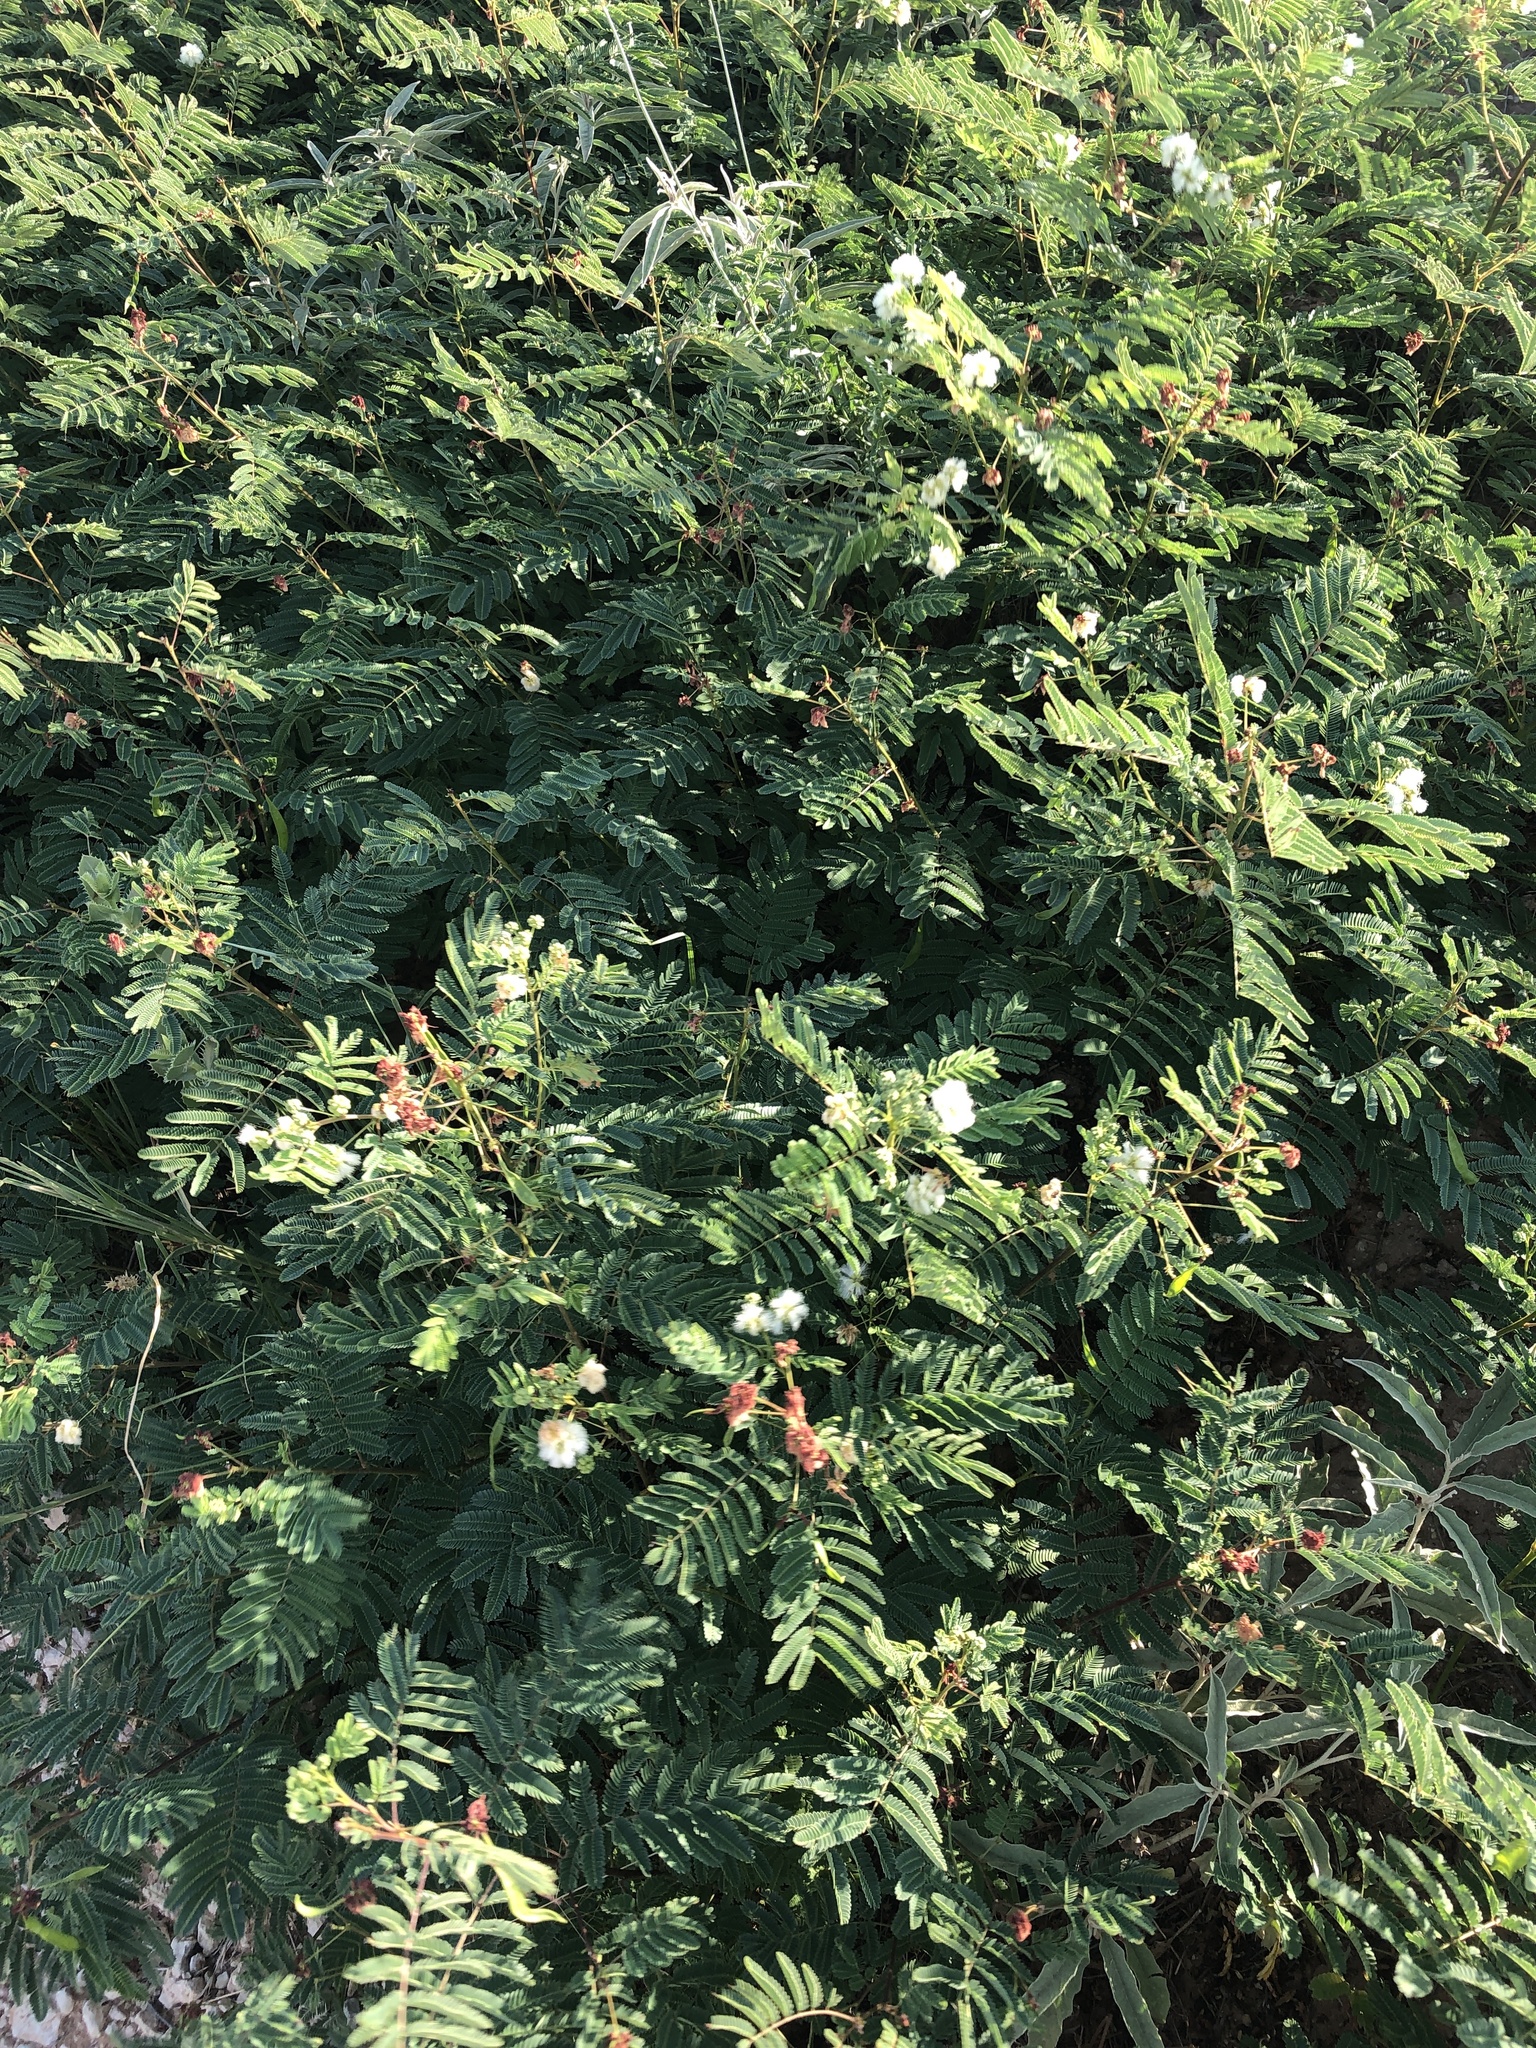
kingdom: Plantae
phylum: Tracheophyta
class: Magnoliopsida
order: Fabales
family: Fabaceae
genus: Acaciella
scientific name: Acaciella angustissima
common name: Prairie acacia
